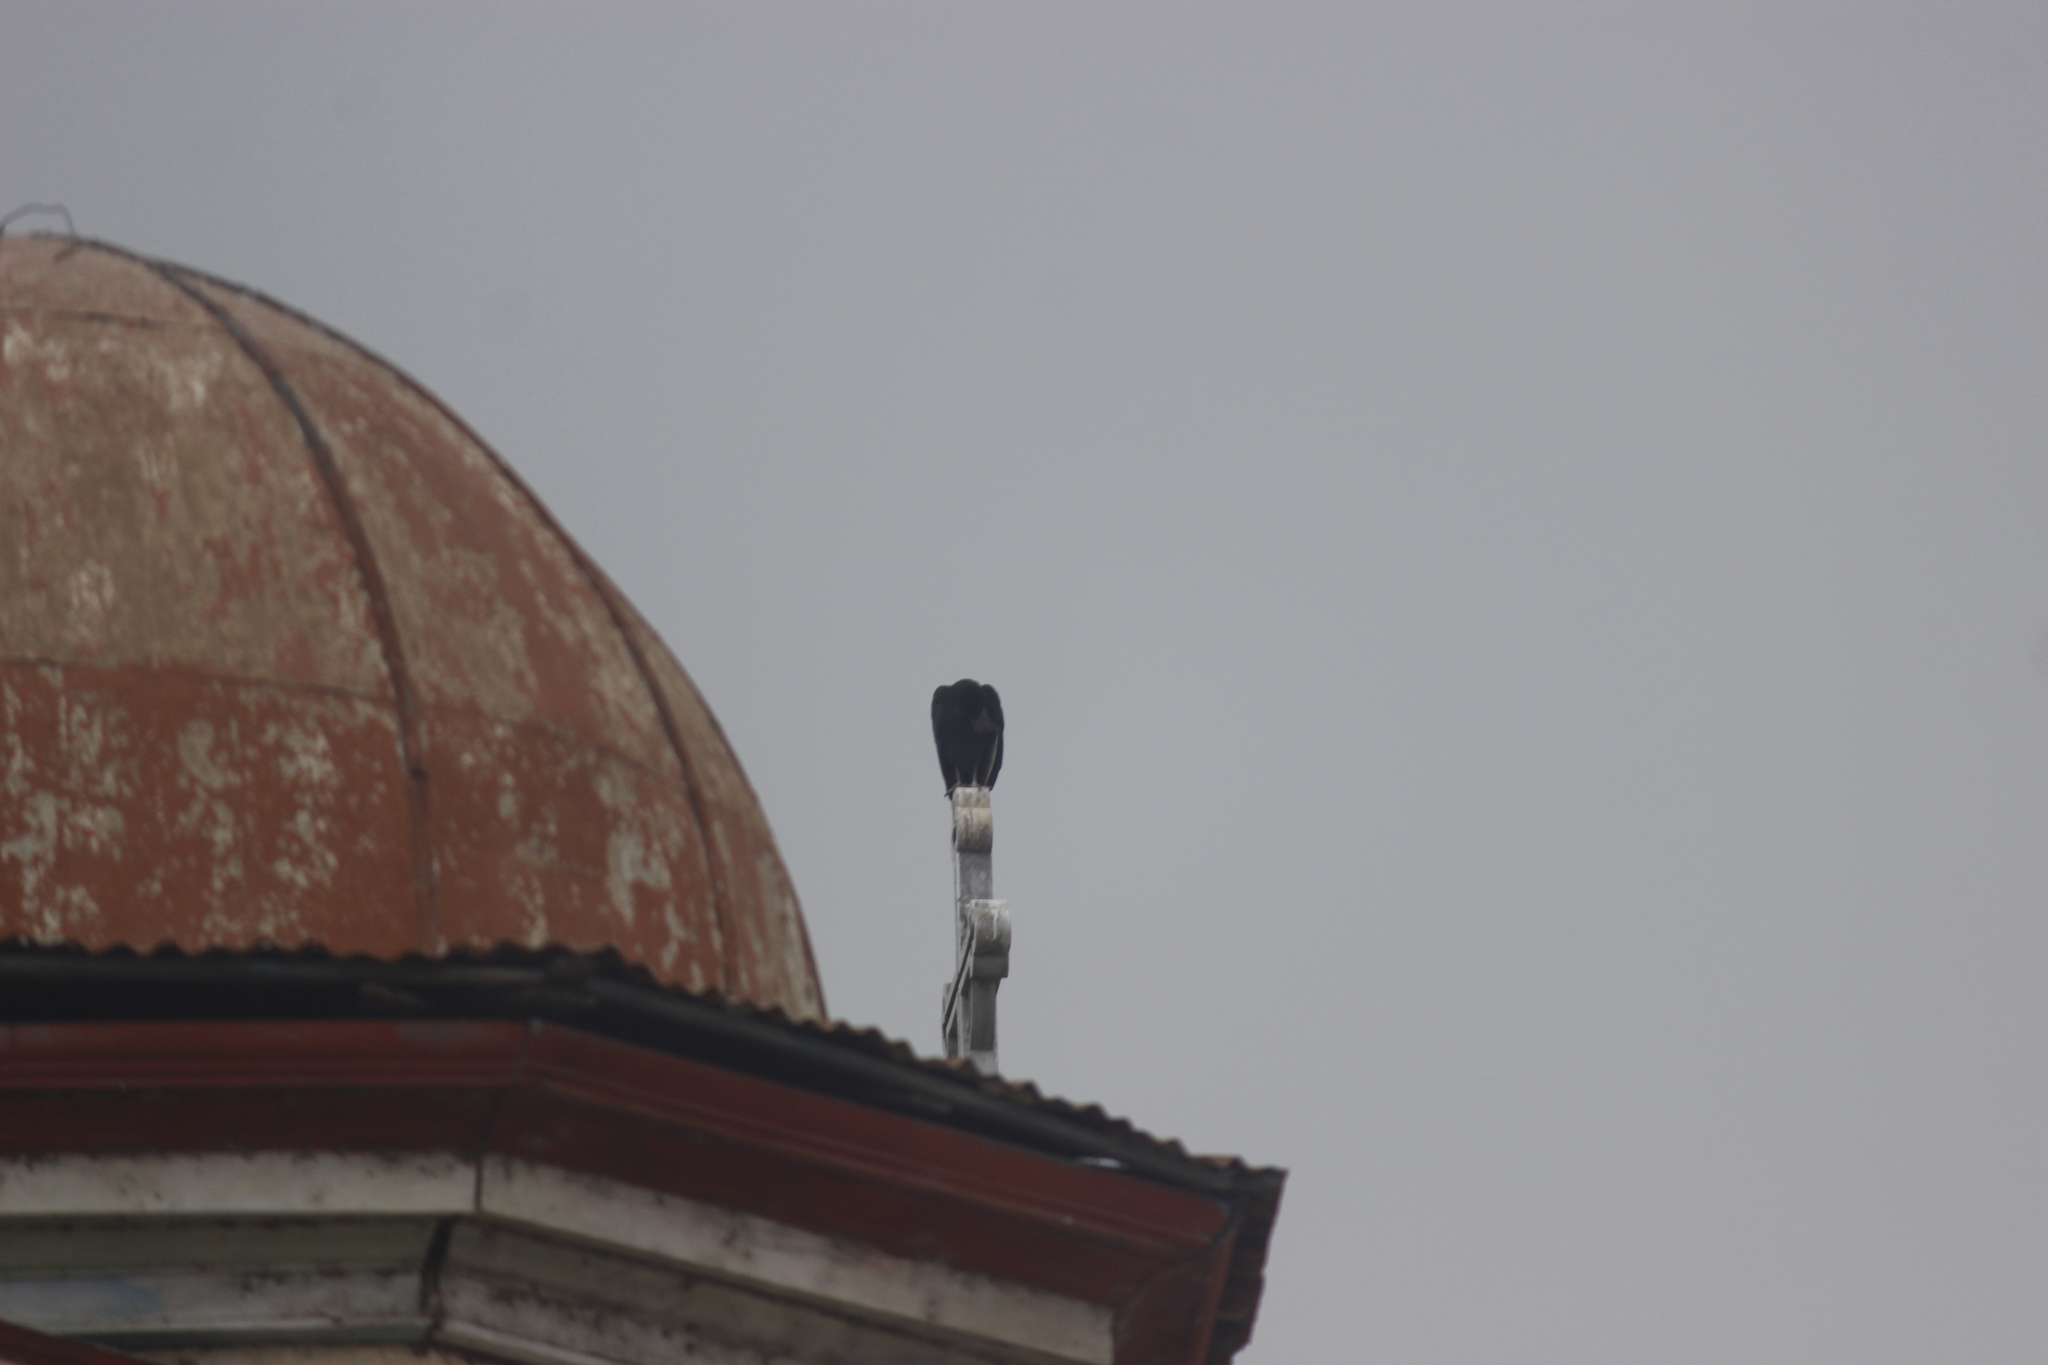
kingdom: Animalia
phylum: Chordata
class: Aves
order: Accipitriformes
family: Cathartidae
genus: Coragyps
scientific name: Coragyps atratus
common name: Black vulture
